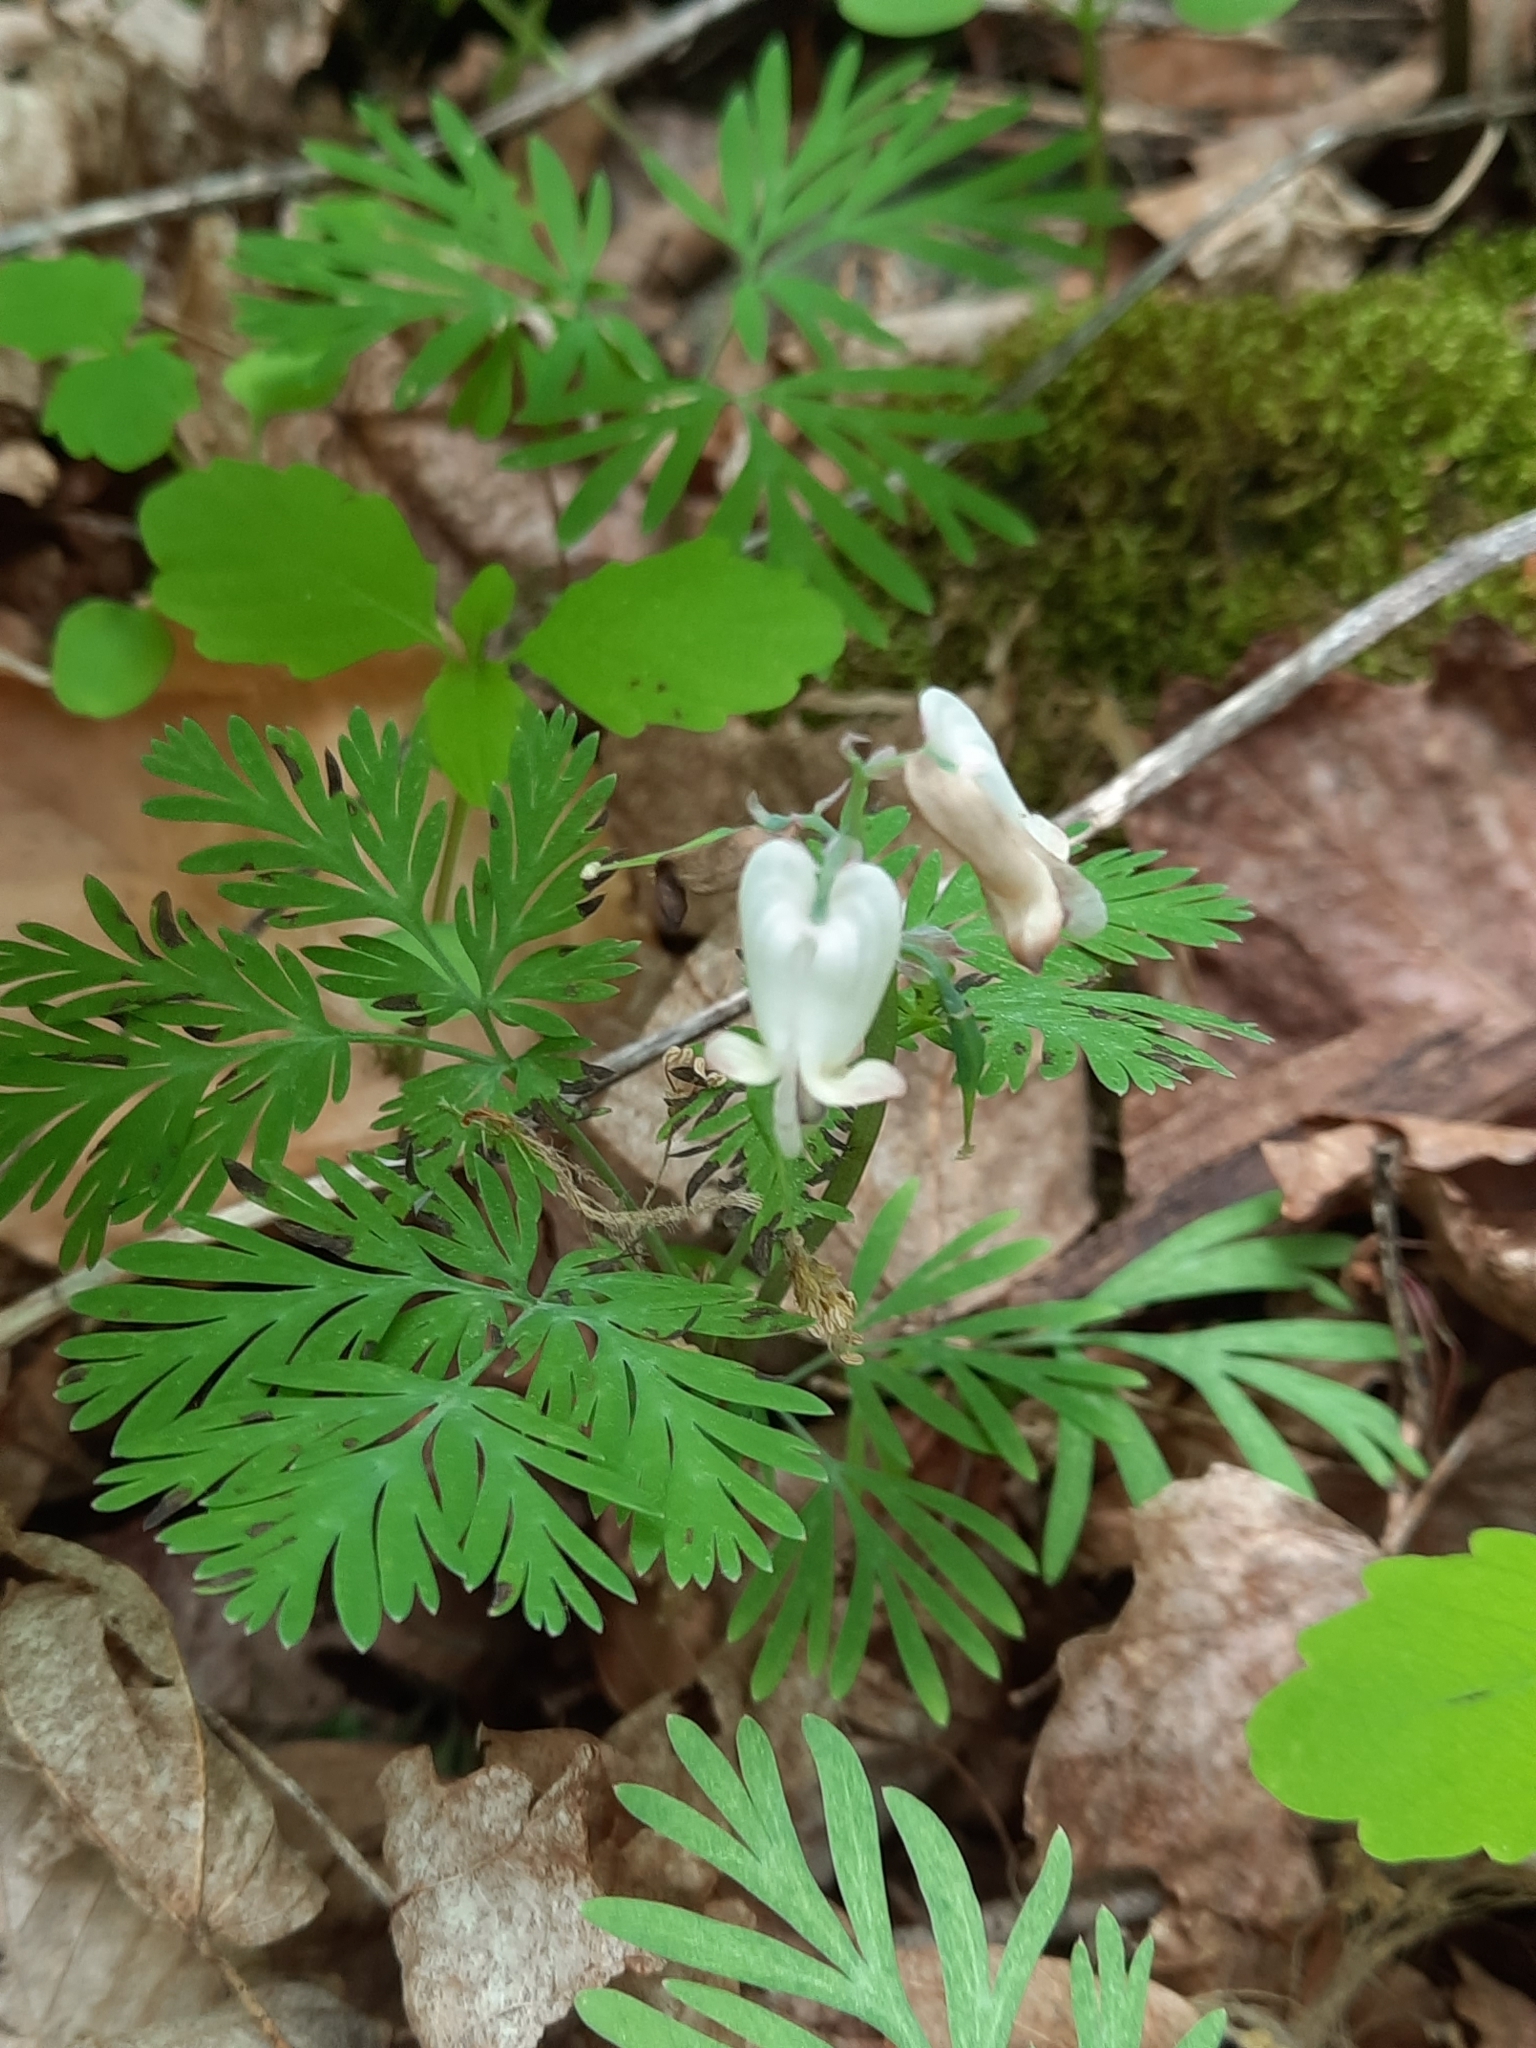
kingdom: Plantae
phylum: Tracheophyta
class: Magnoliopsida
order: Ranunculales
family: Papaveraceae
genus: Dicentra
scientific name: Dicentra canadensis
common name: Squirrel-corn
